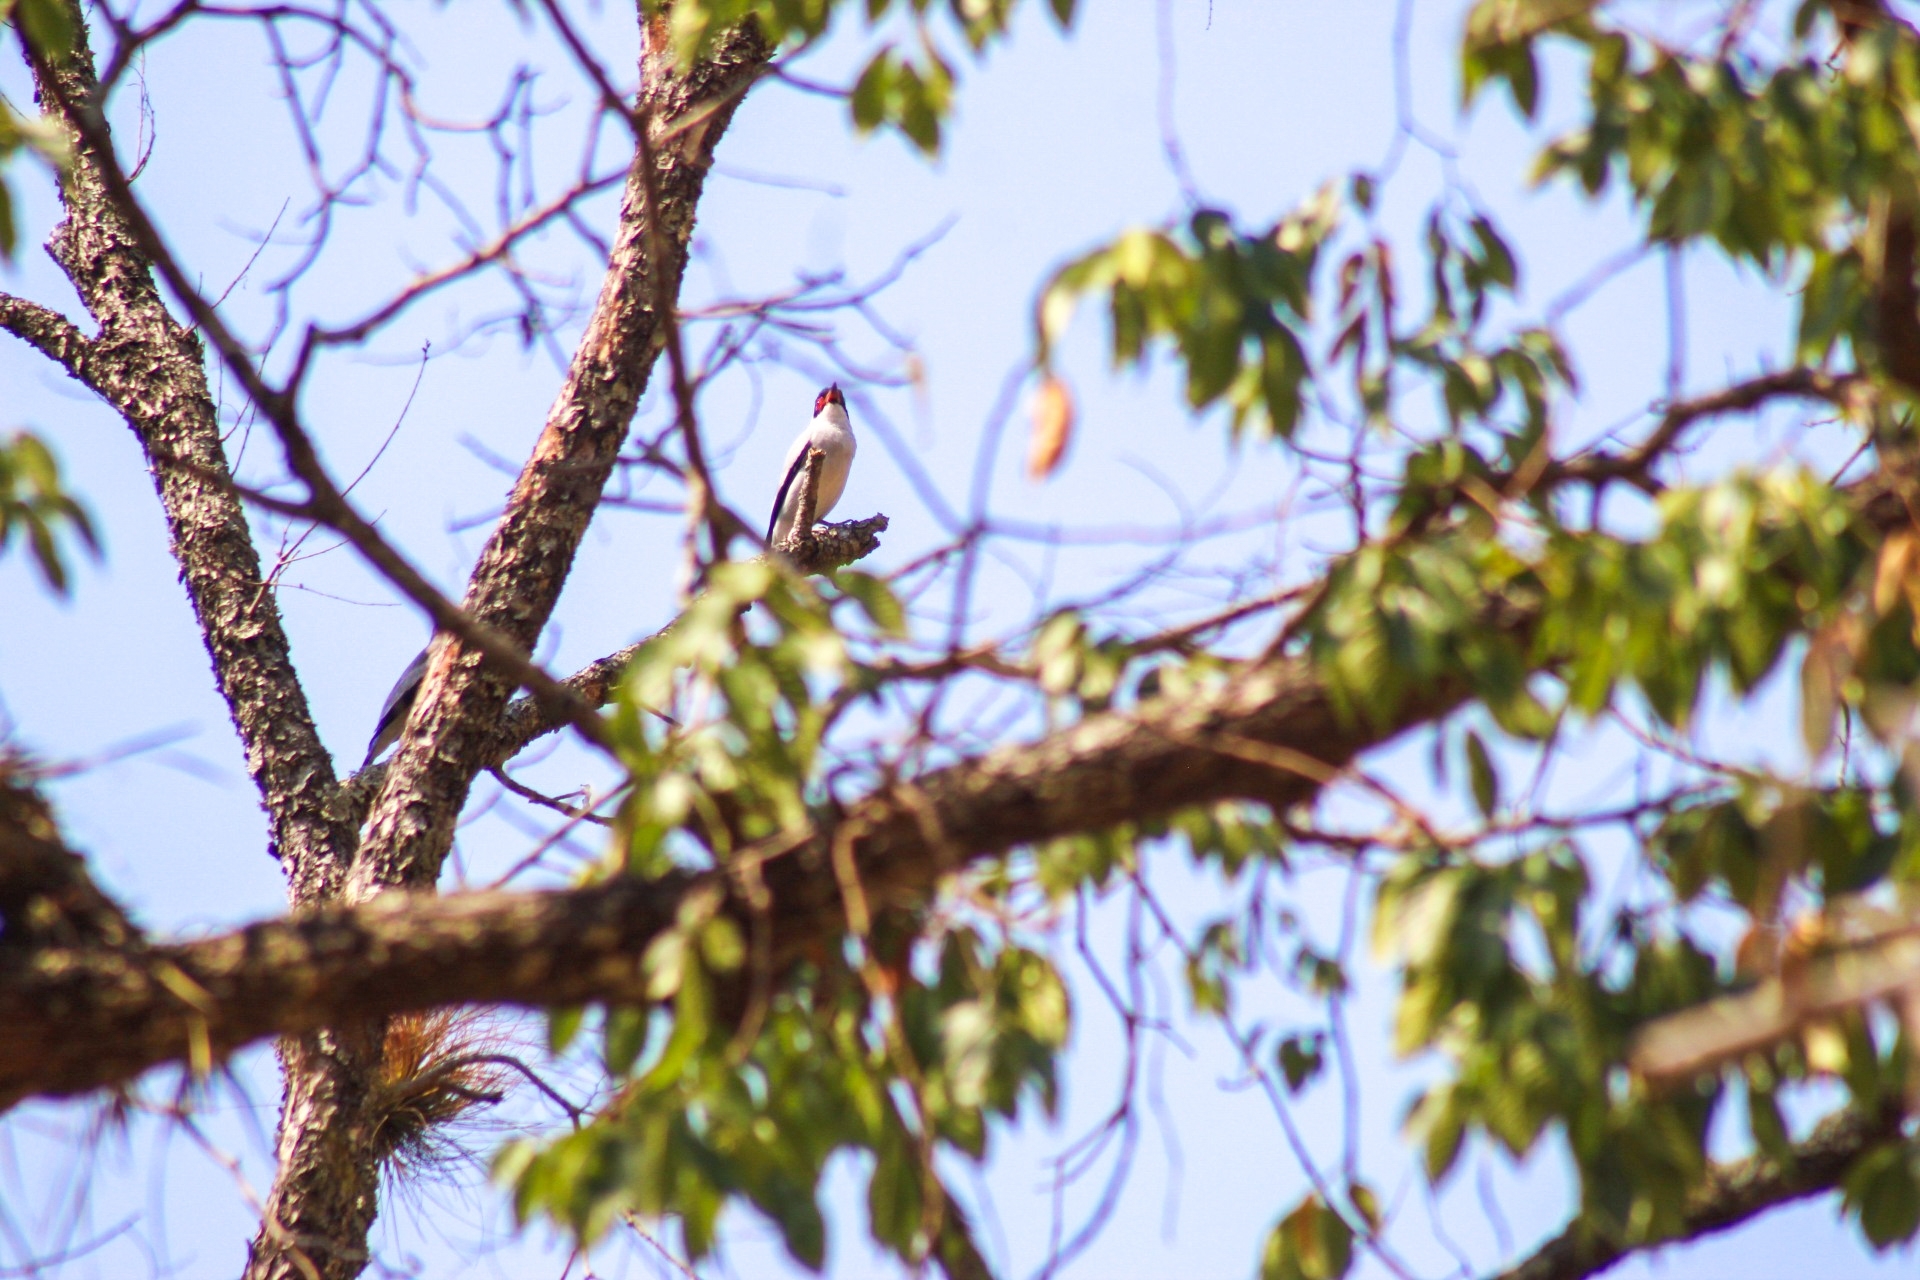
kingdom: Animalia
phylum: Chordata
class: Aves
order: Passeriformes
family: Cotingidae
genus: Tityra
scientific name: Tityra semifasciata
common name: Masked tityra
